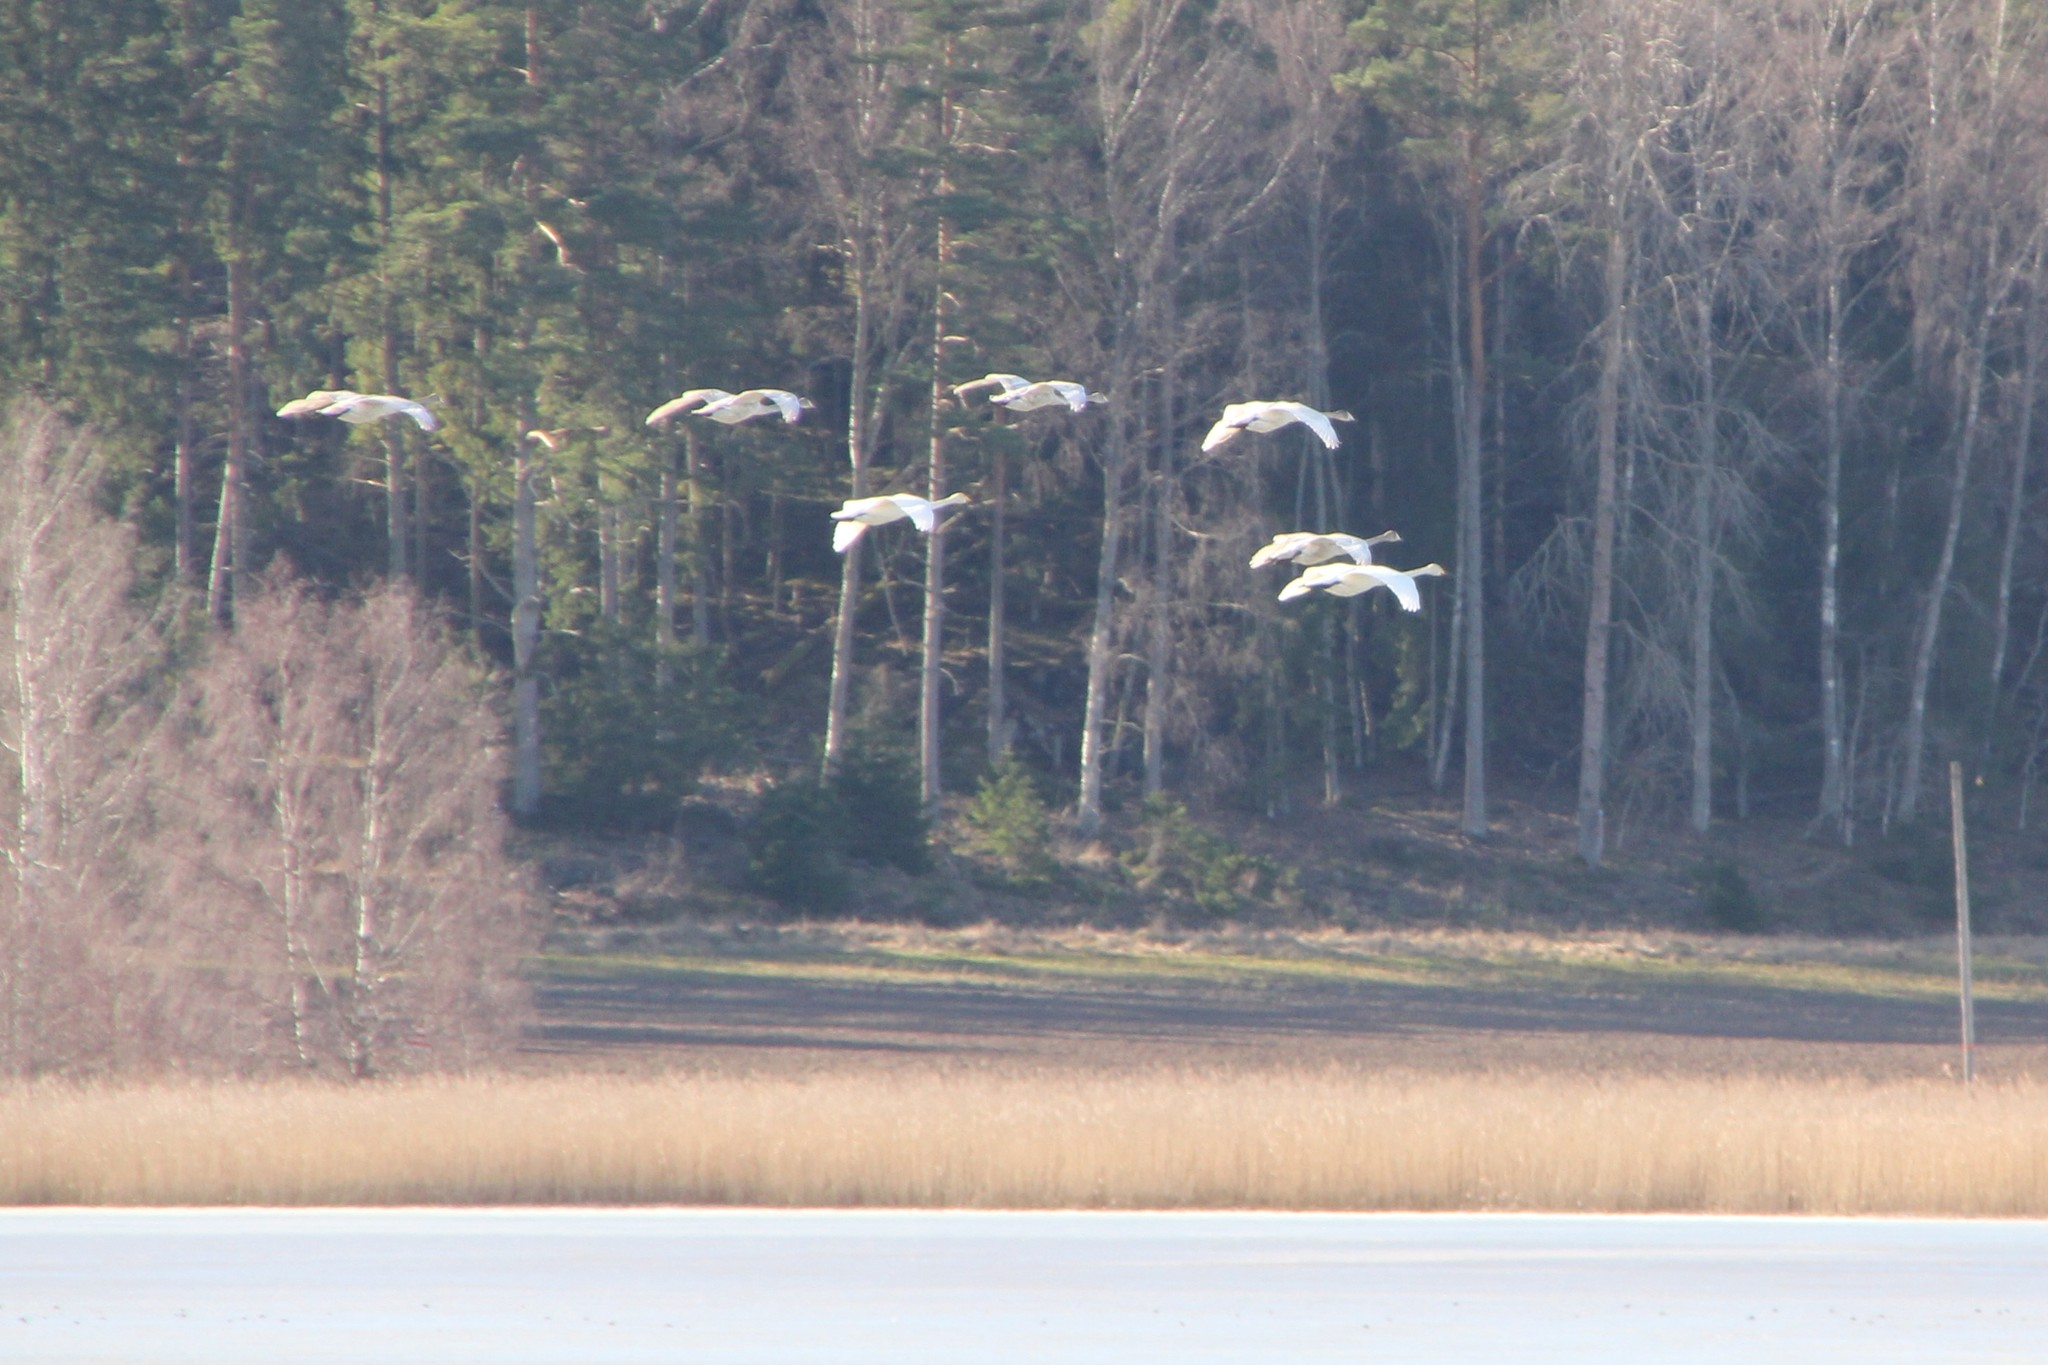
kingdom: Animalia
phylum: Chordata
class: Aves
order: Anseriformes
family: Anatidae
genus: Cygnus
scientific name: Cygnus cygnus
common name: Whooper swan
